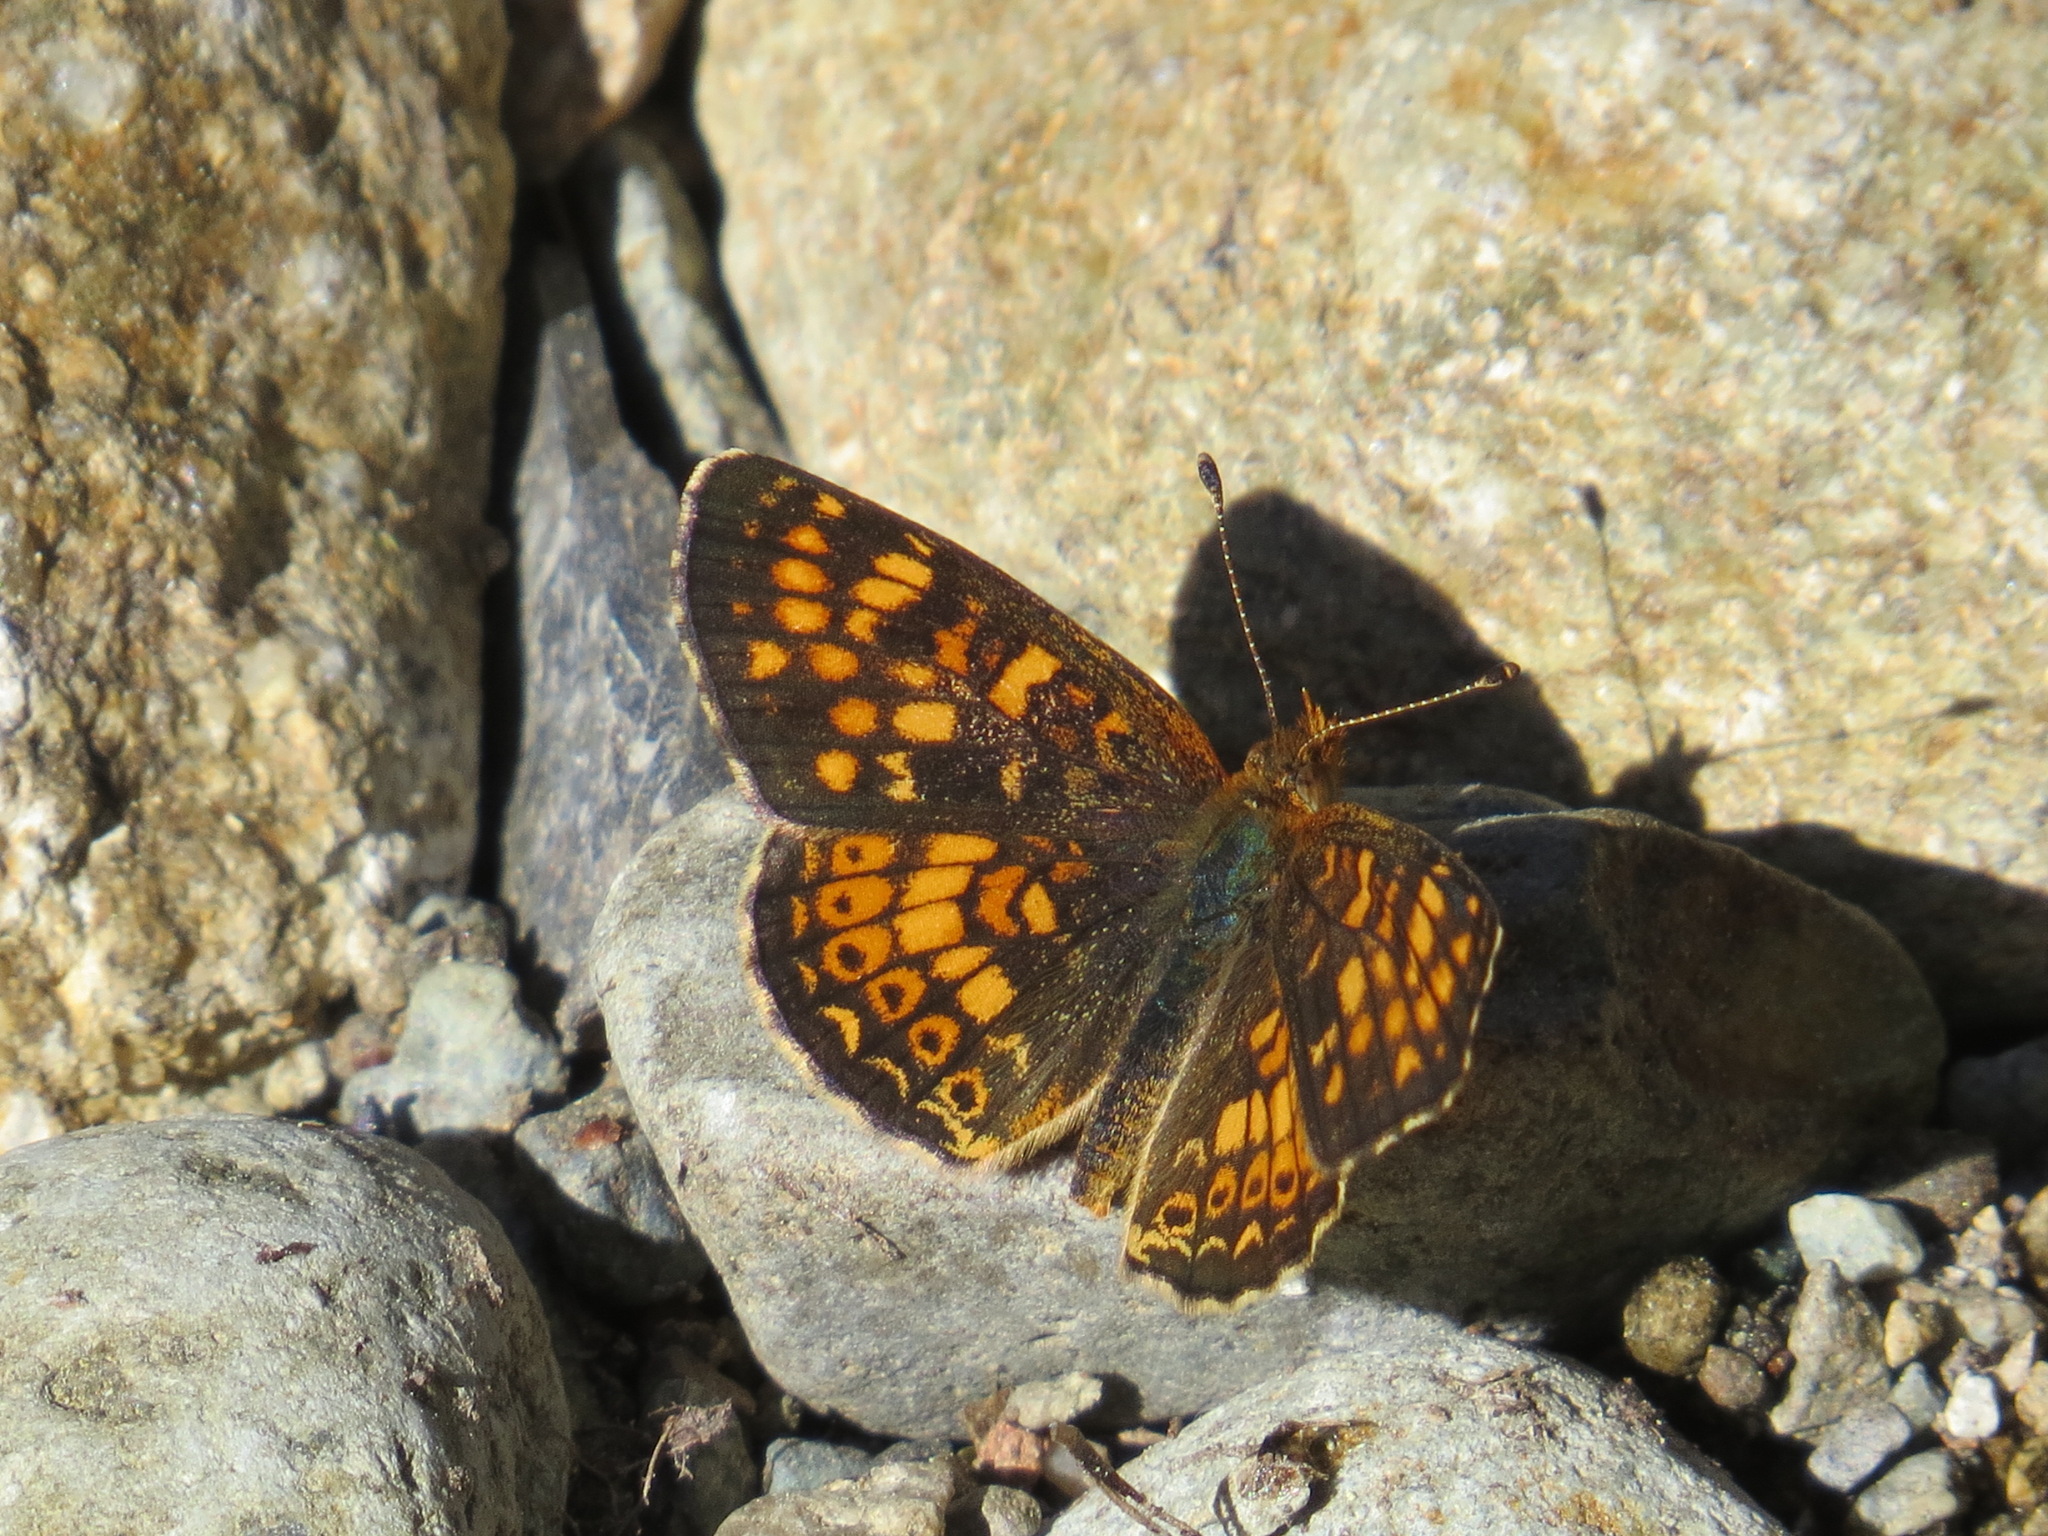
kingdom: Animalia
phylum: Arthropoda
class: Insecta
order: Lepidoptera
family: Nymphalidae
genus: Phyciodes
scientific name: Phyciodes tharos
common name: Pearl crescent
